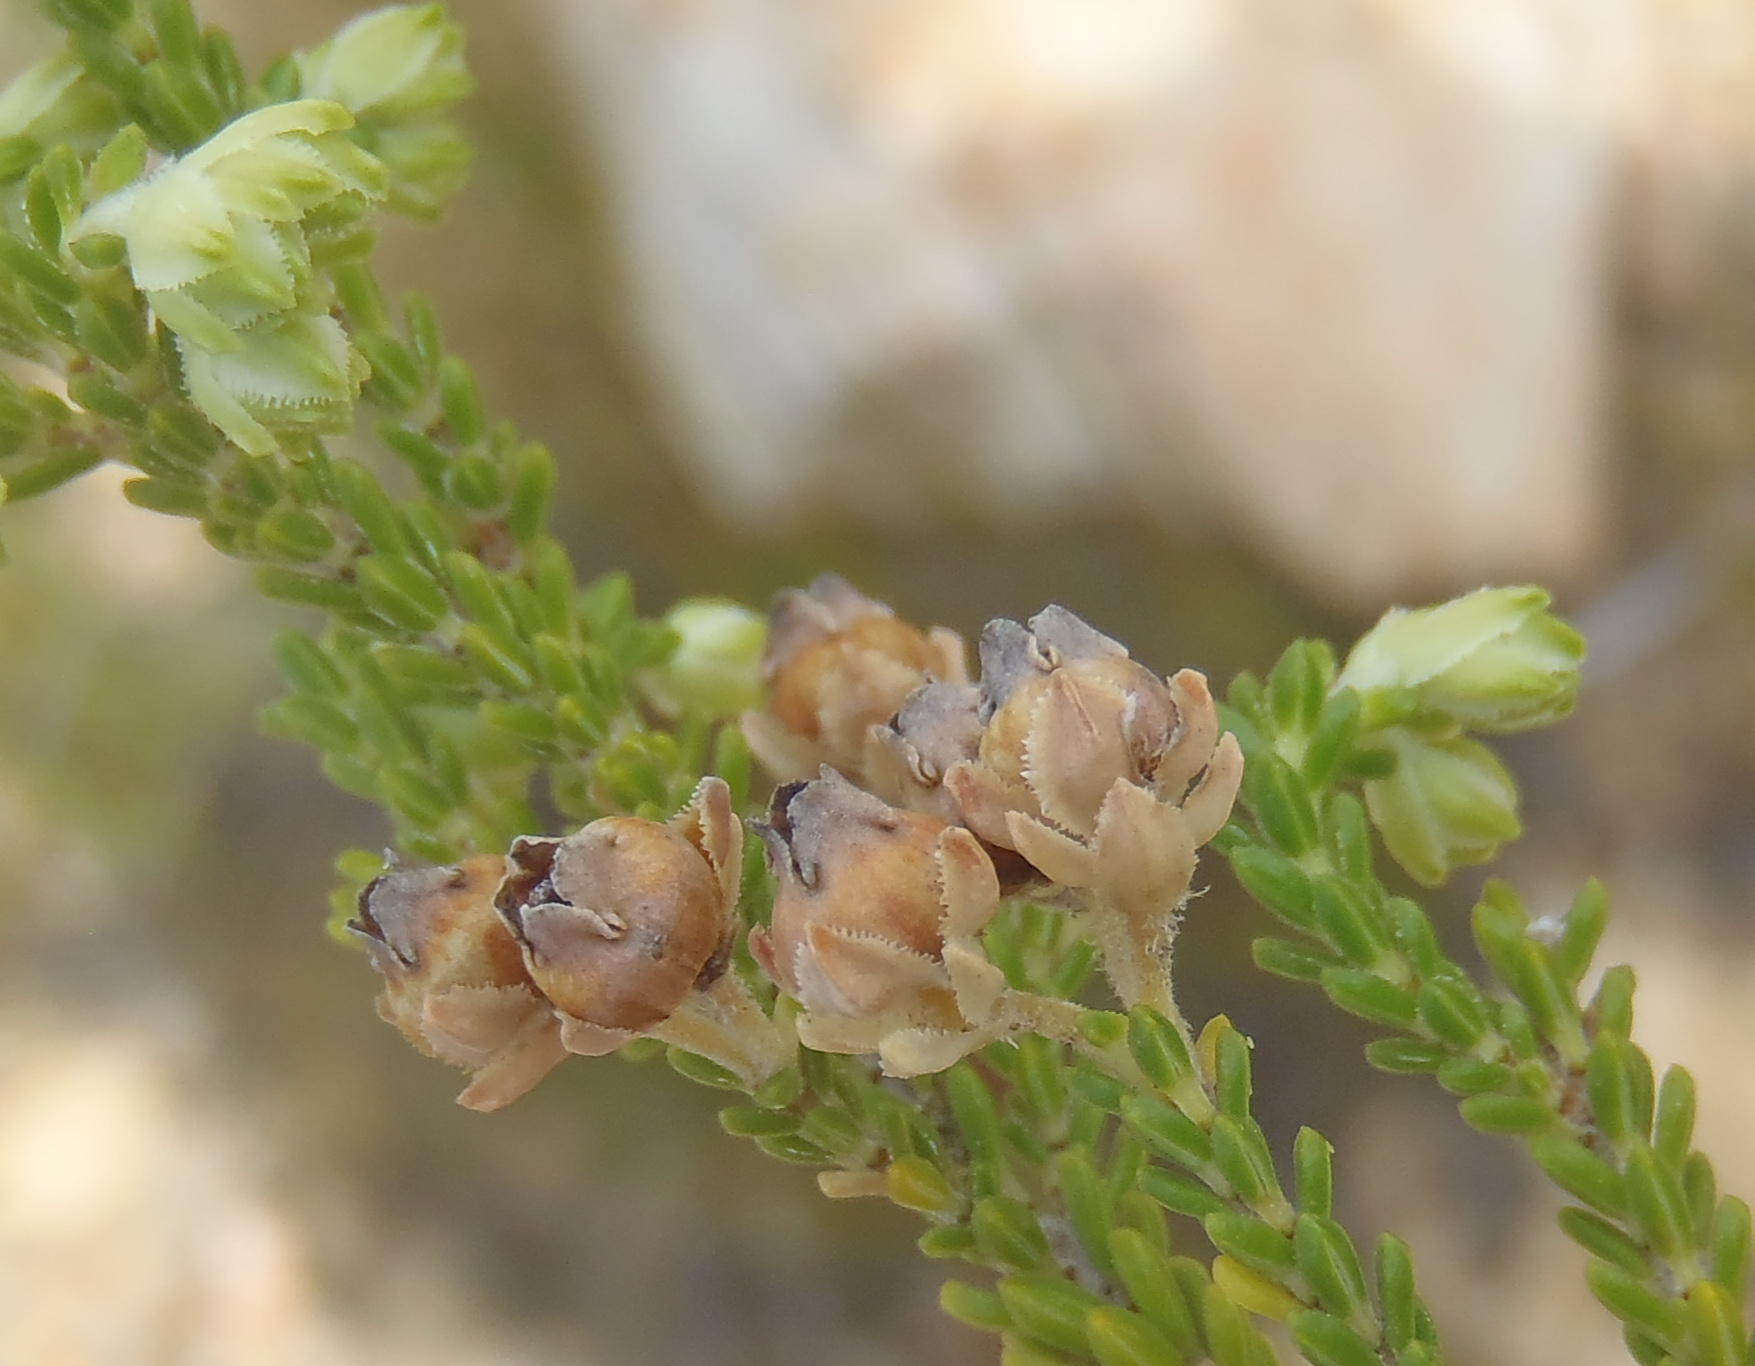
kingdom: Plantae
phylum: Tracheophyta
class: Magnoliopsida
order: Ericales
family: Ericaceae
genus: Erica
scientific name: Erica fimbriata
